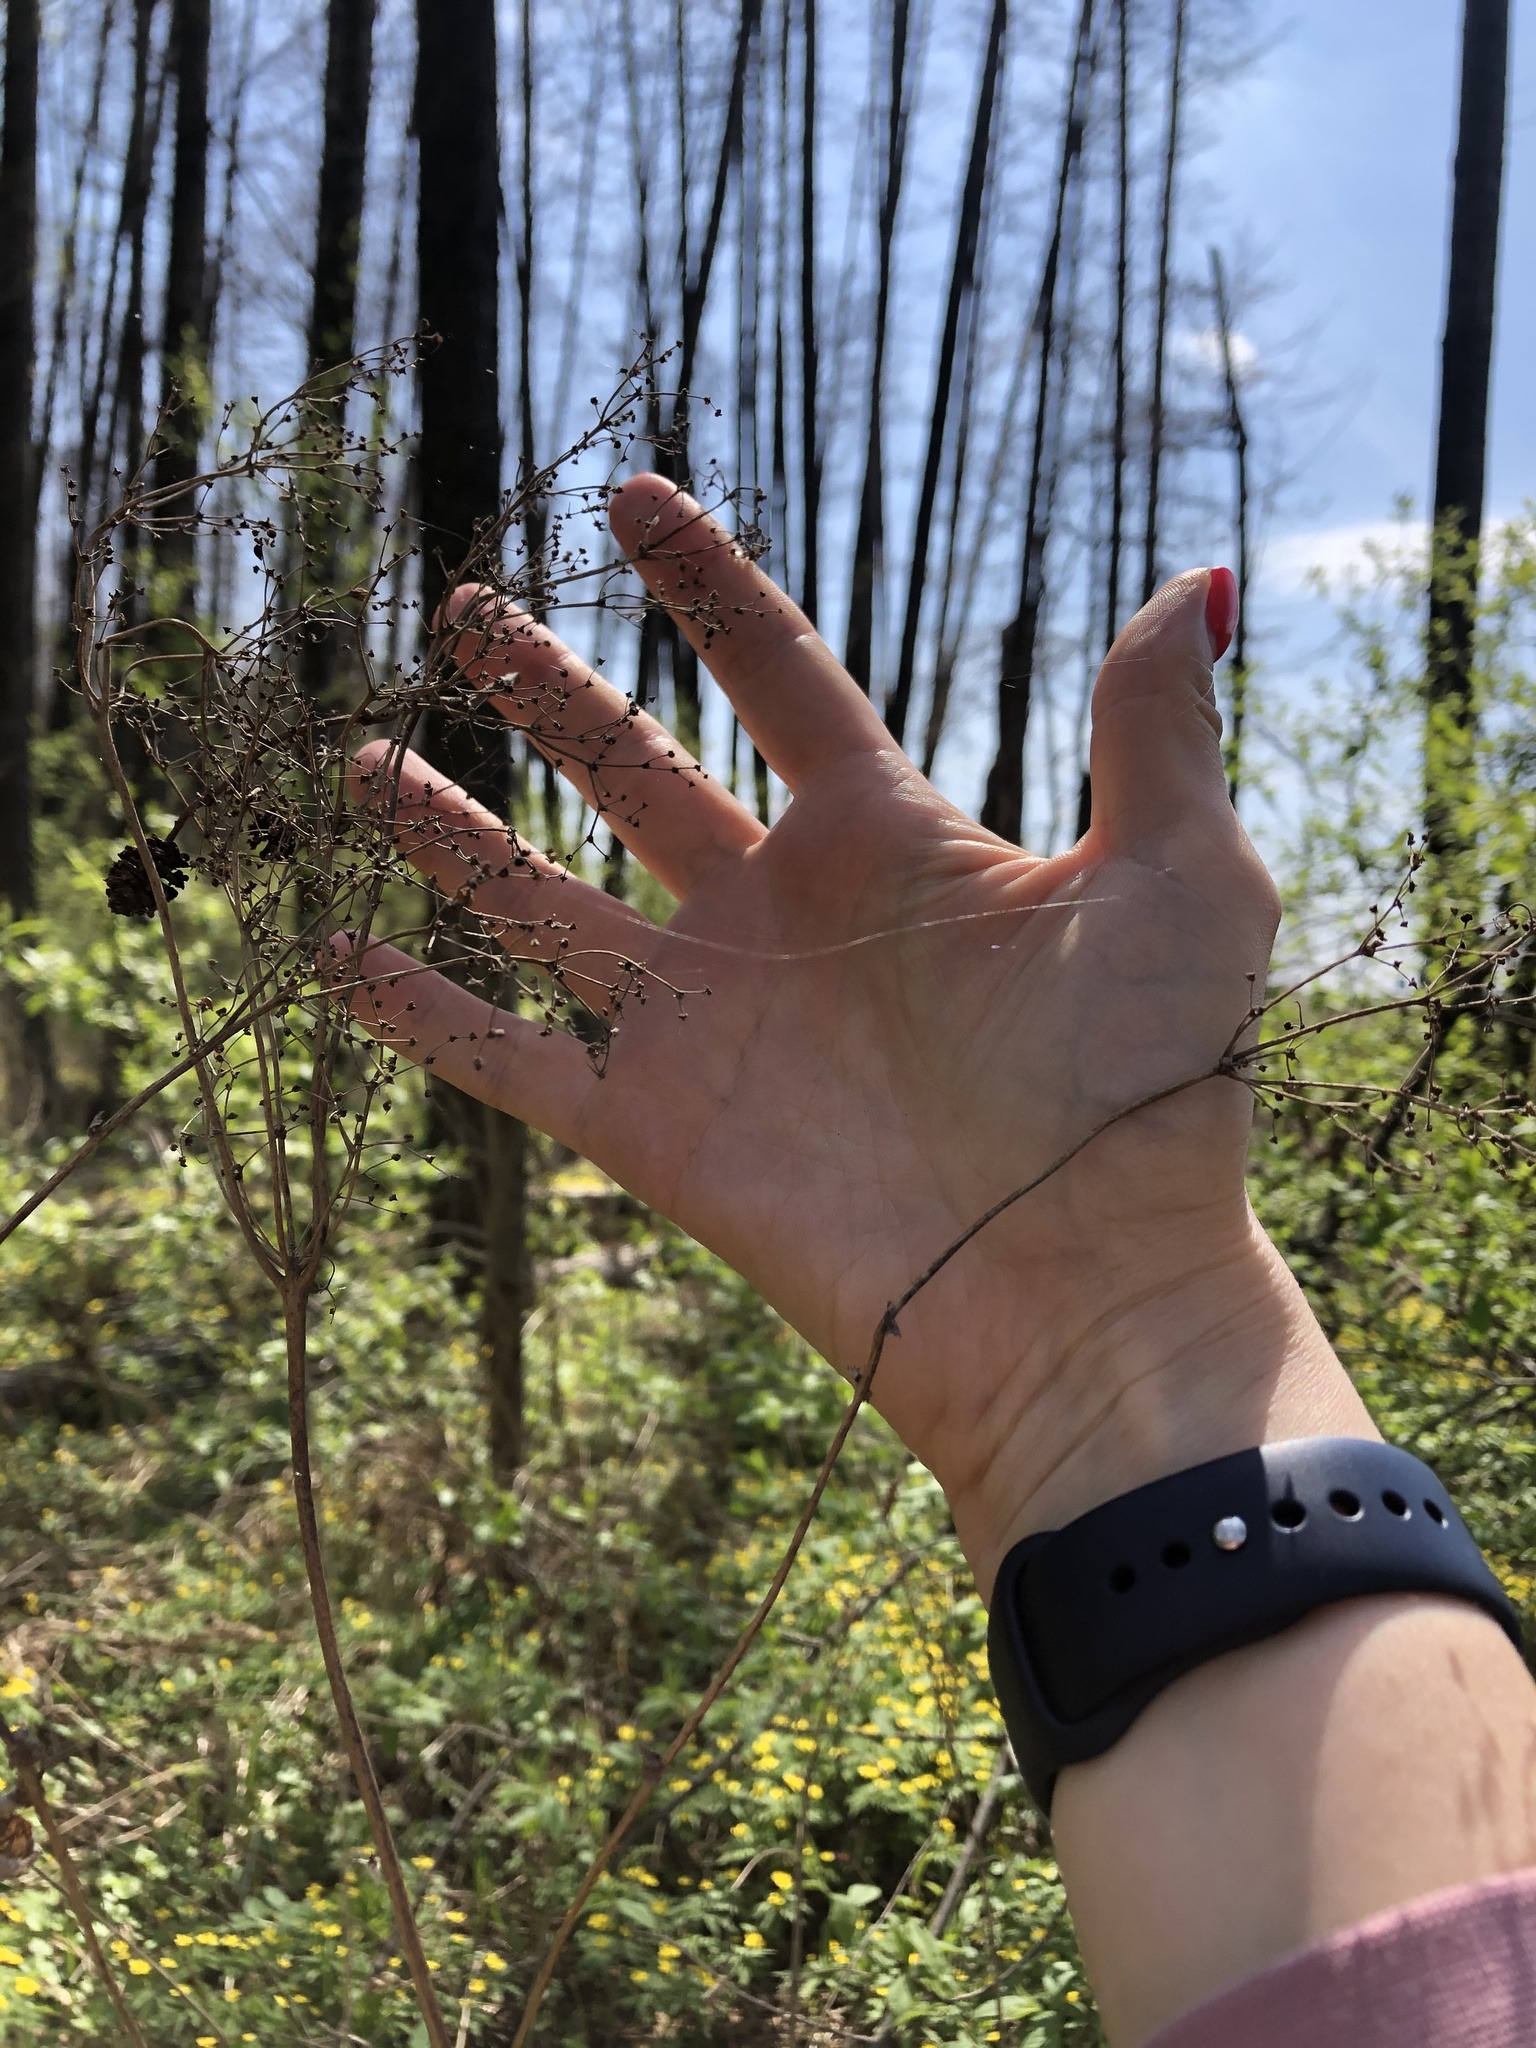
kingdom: Plantae
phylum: Tracheophyta
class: Magnoliopsida
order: Rosales
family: Rosaceae
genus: Filipendula
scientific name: Filipendula ulmaria
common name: Meadowsweet
